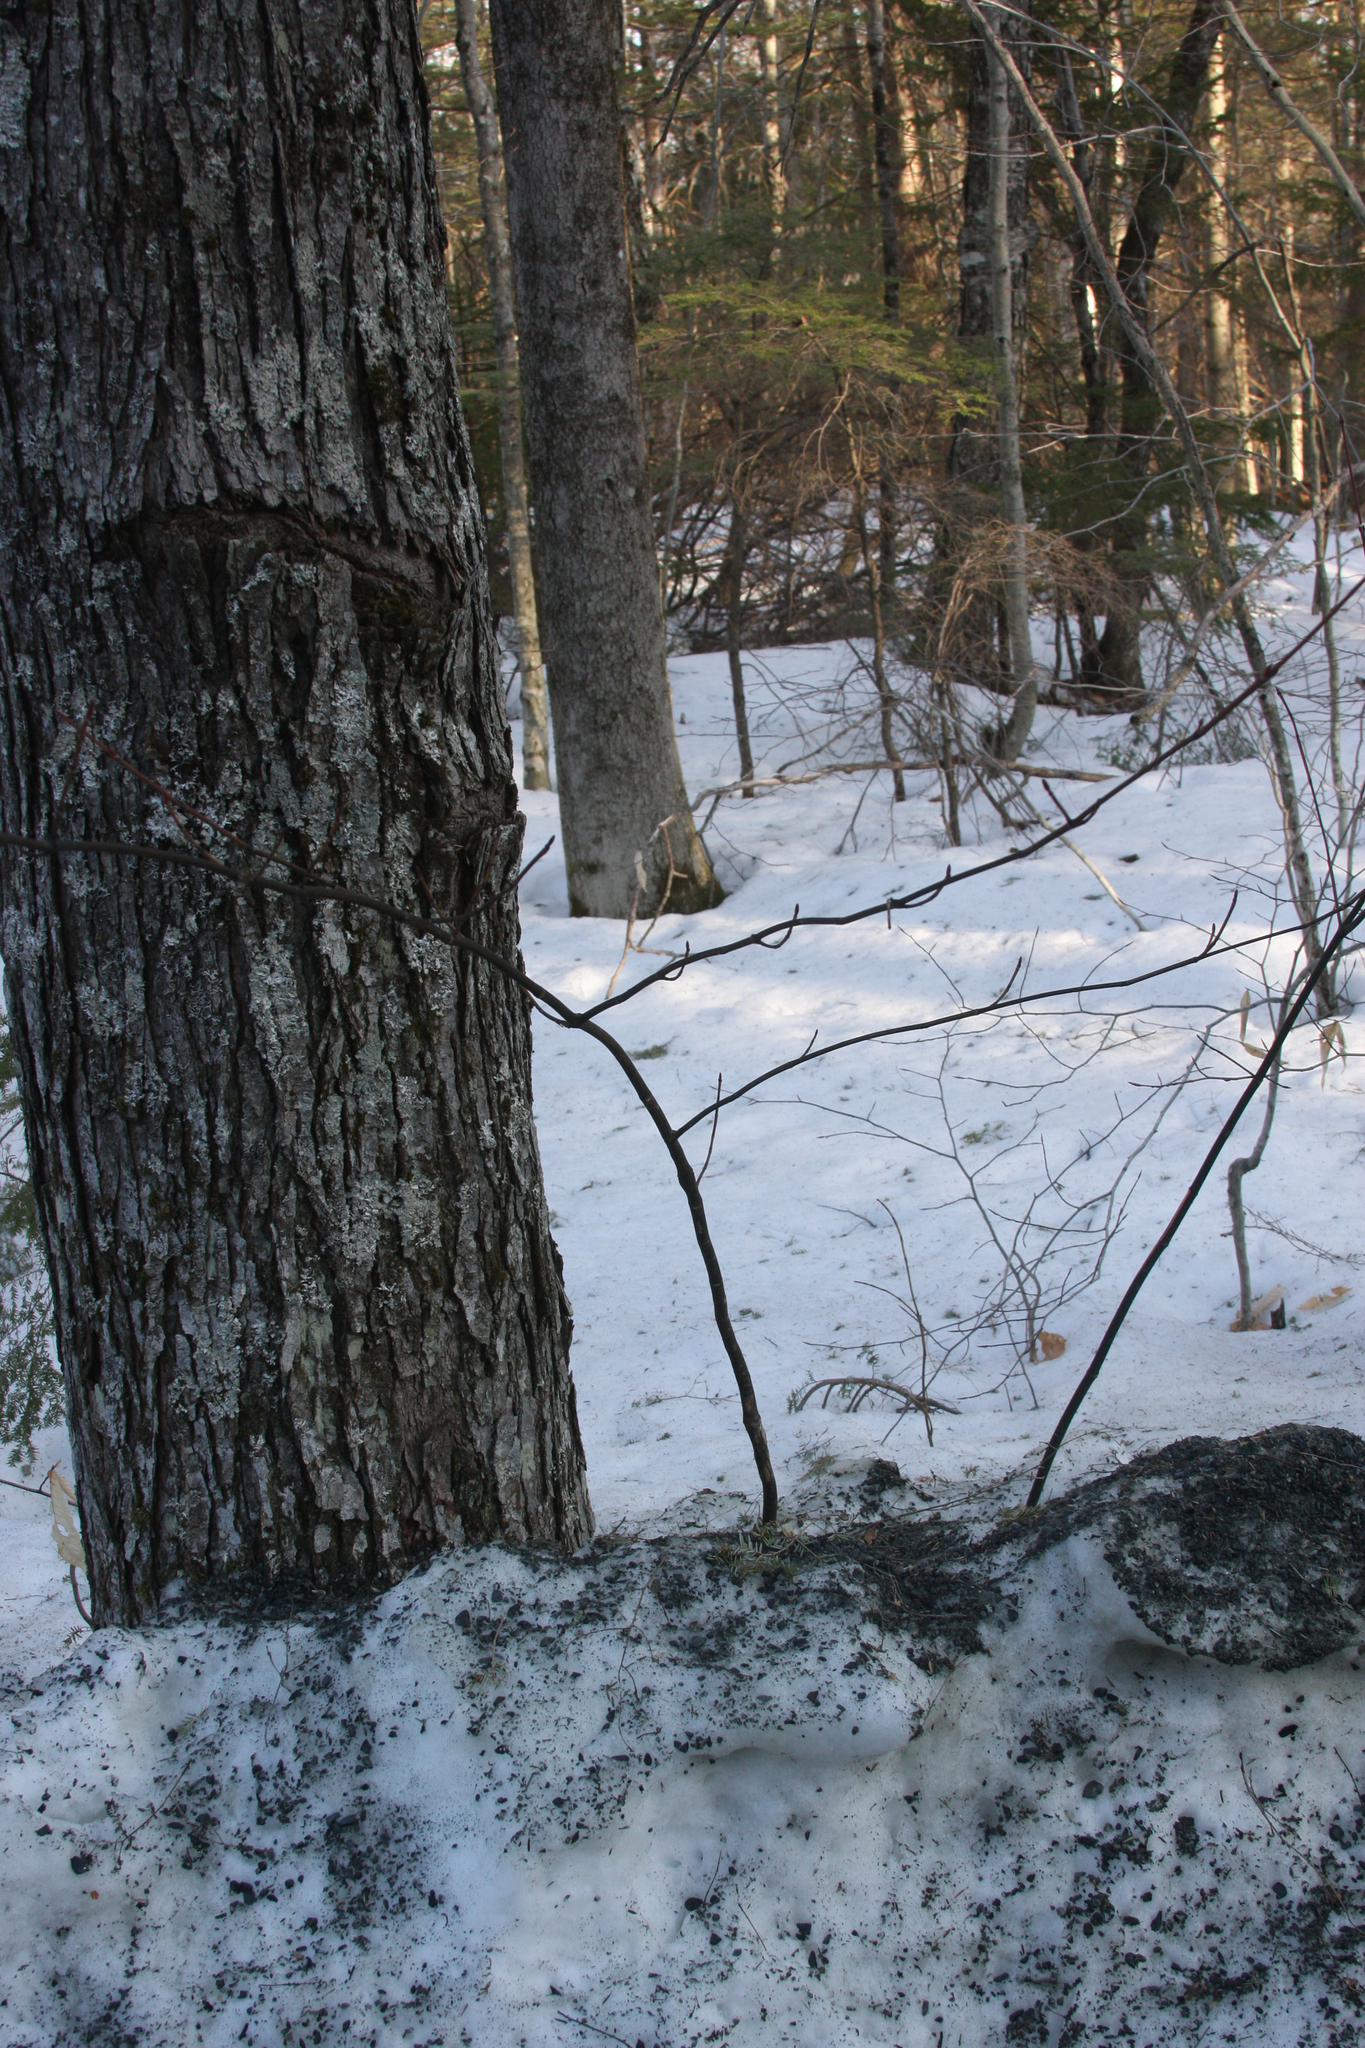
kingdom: Plantae
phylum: Tracheophyta
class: Magnoliopsida
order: Sapindales
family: Sapindaceae
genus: Acer
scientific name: Acer pensylvanicum
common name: Moosewood
